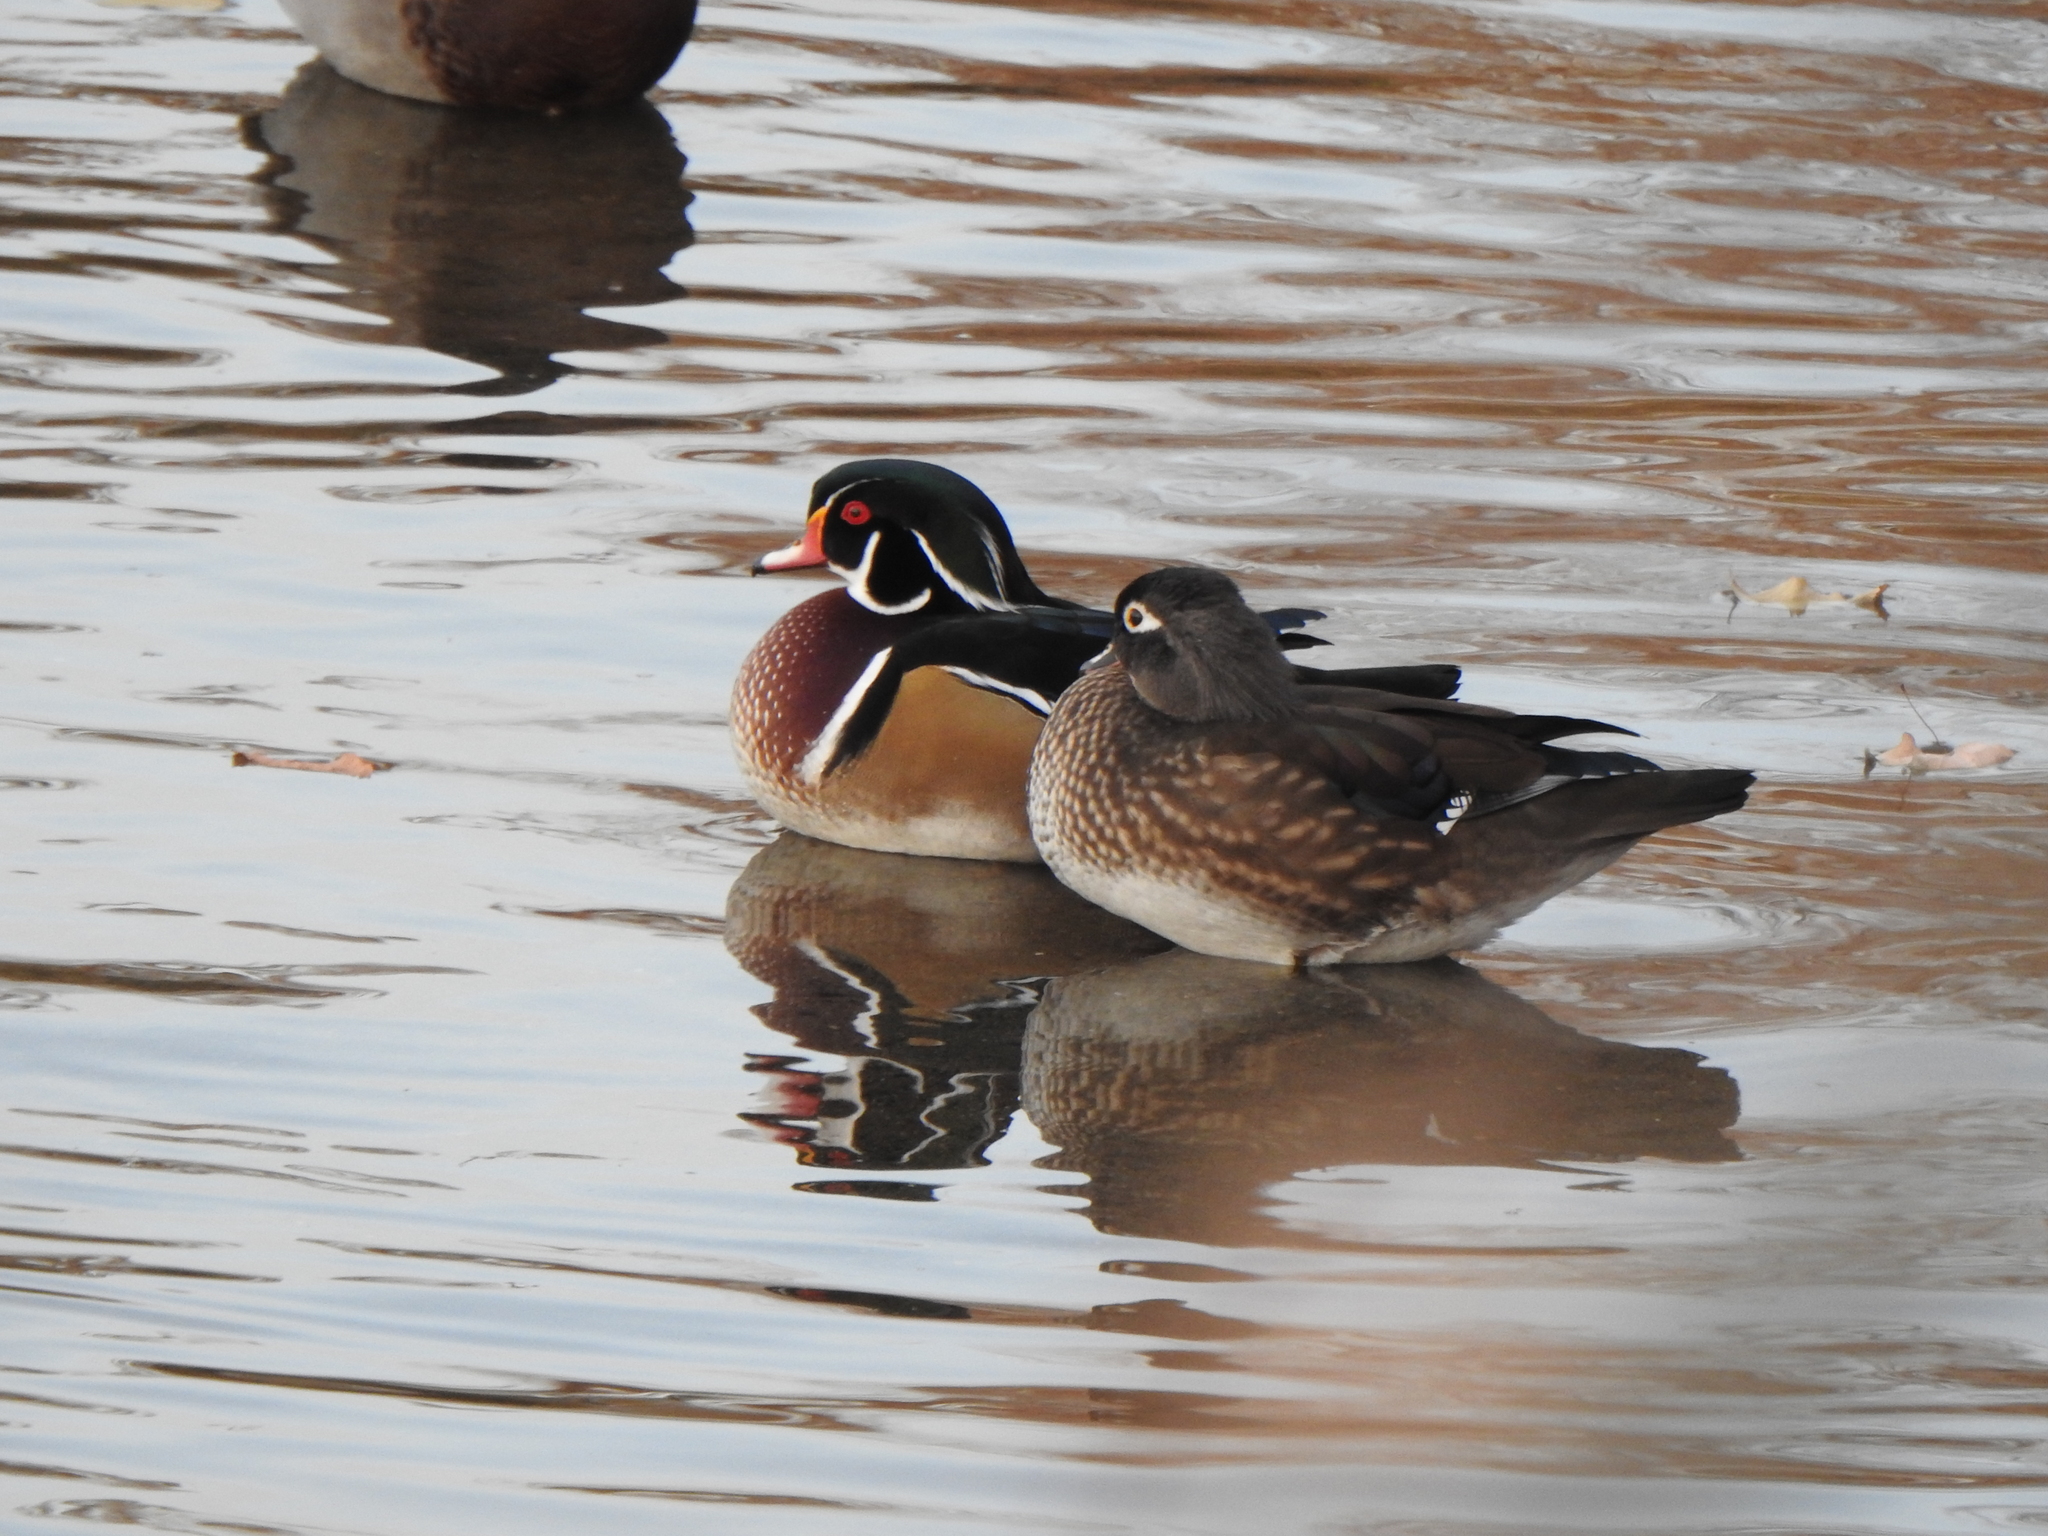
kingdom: Animalia
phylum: Chordata
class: Aves
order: Anseriformes
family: Anatidae
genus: Aix
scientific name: Aix sponsa
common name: Wood duck
